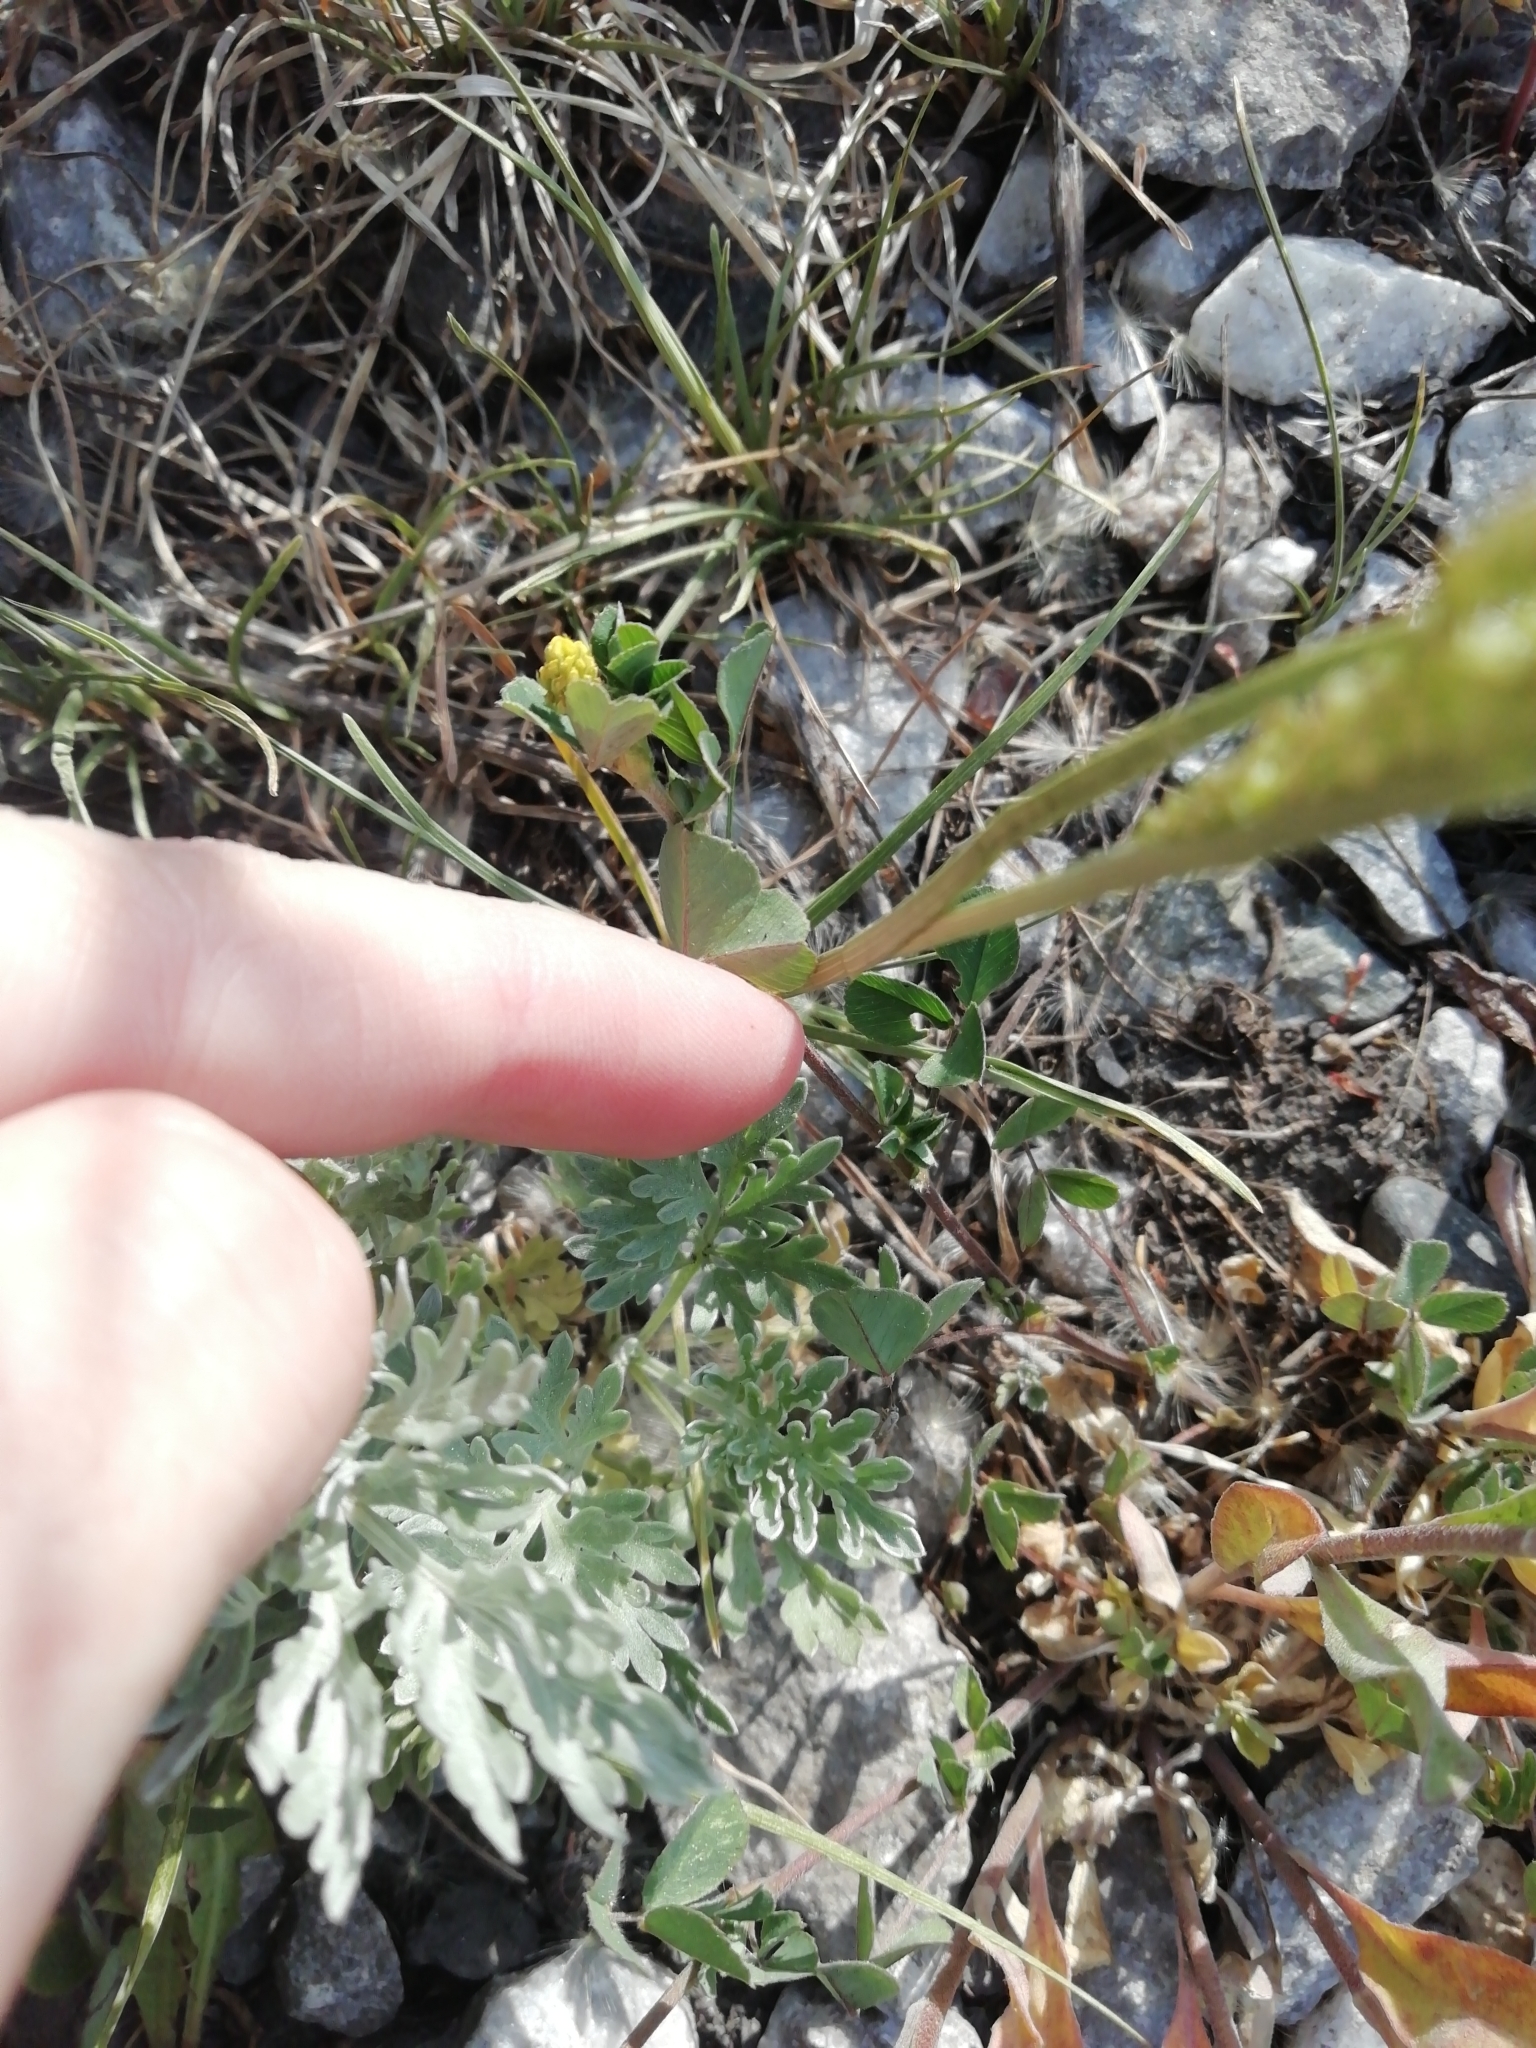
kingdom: Plantae
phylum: Tracheophyta
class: Magnoliopsida
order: Fabales
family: Fabaceae
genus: Medicago
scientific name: Medicago lupulina
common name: Black medick
